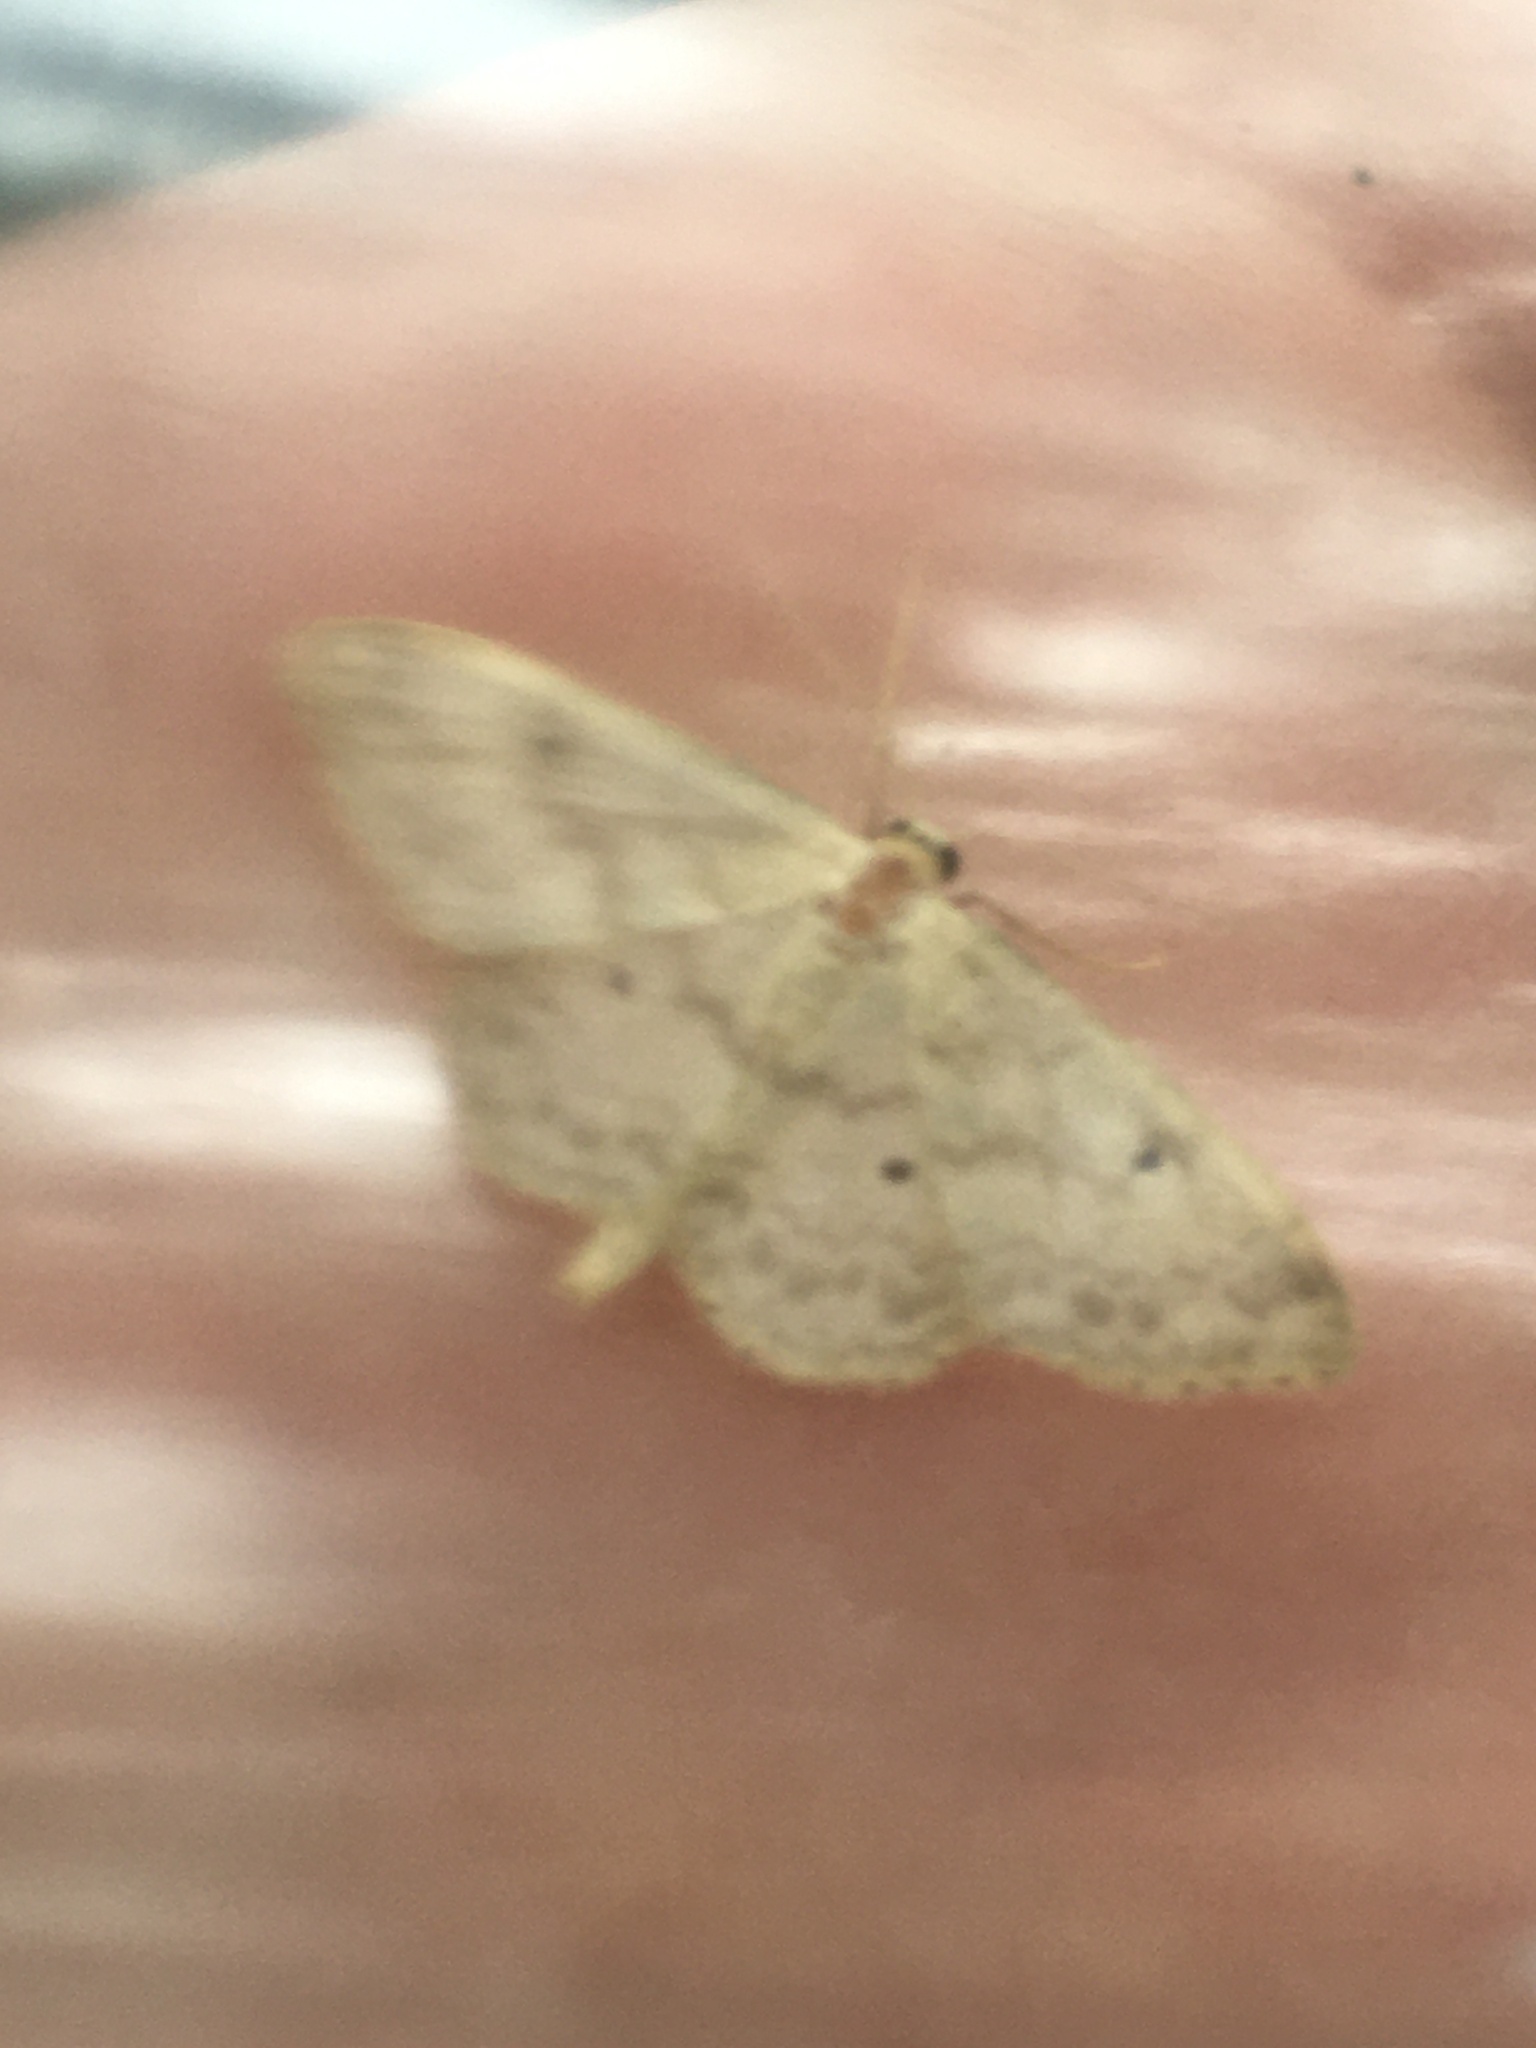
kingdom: Animalia
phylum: Arthropoda
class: Insecta
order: Lepidoptera
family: Geometridae
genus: Idaea
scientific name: Idaea biselata
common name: Small fan-footed wave
